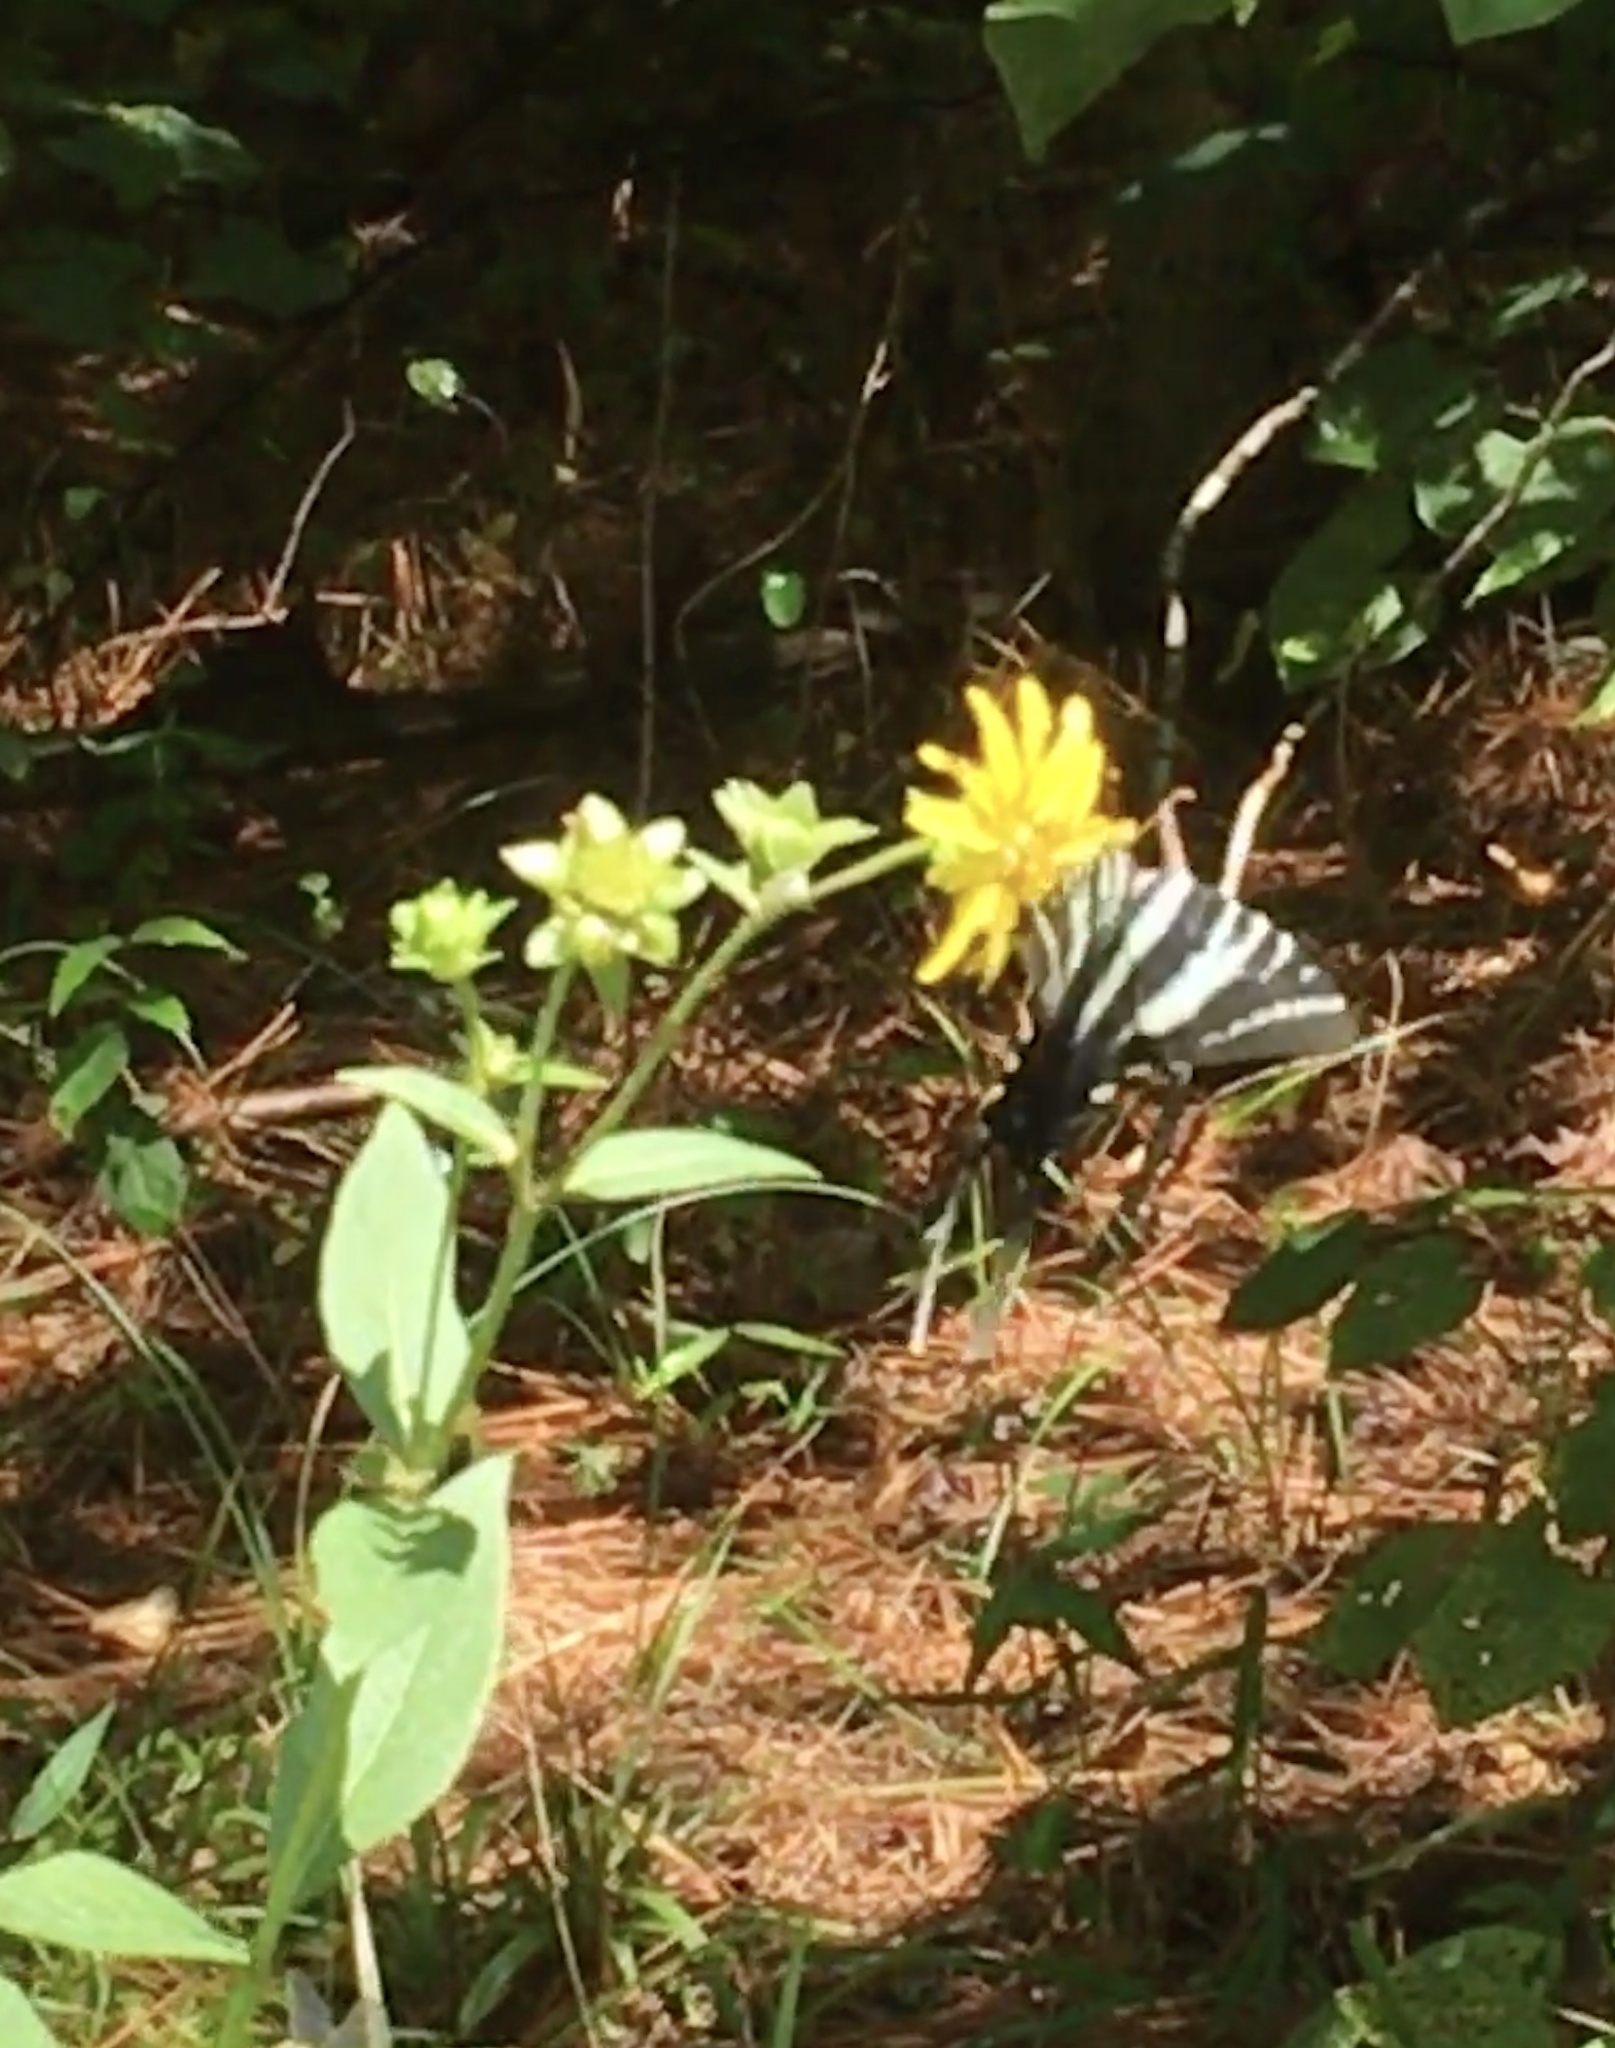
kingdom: Animalia
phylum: Arthropoda
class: Insecta
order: Lepidoptera
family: Papilionidae
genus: Protographium
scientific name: Protographium marcellus
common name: Zebra swallowtail
